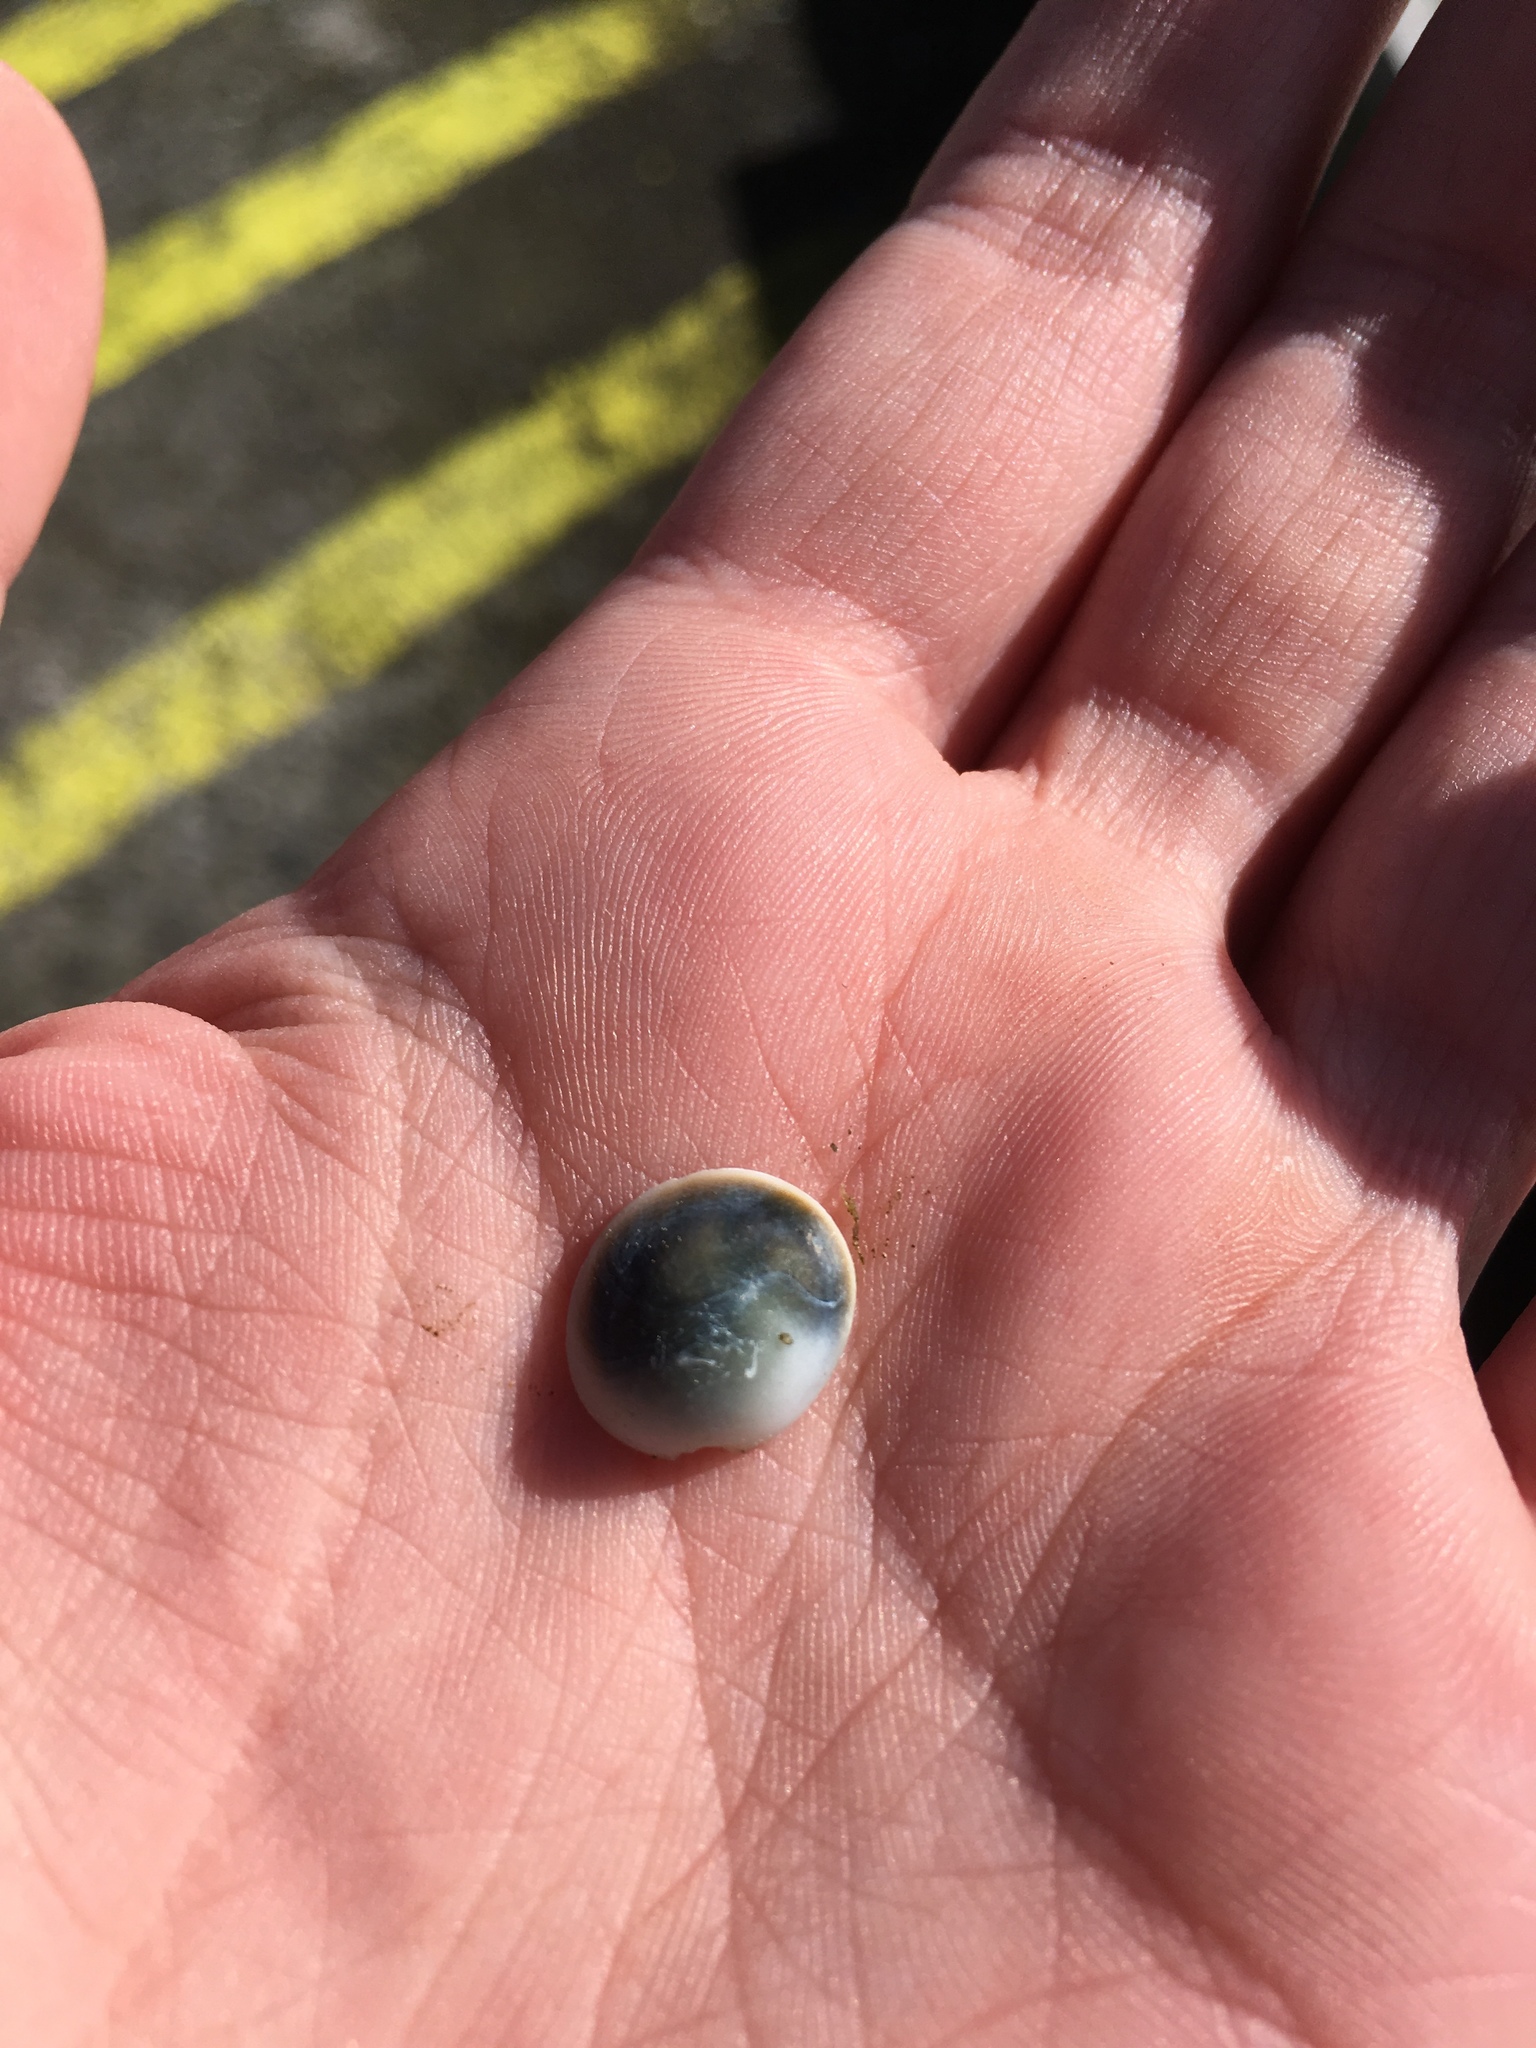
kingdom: Animalia
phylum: Mollusca
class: Gastropoda
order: Trochida
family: Turbinidae
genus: Lunella
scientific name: Lunella smaragda
